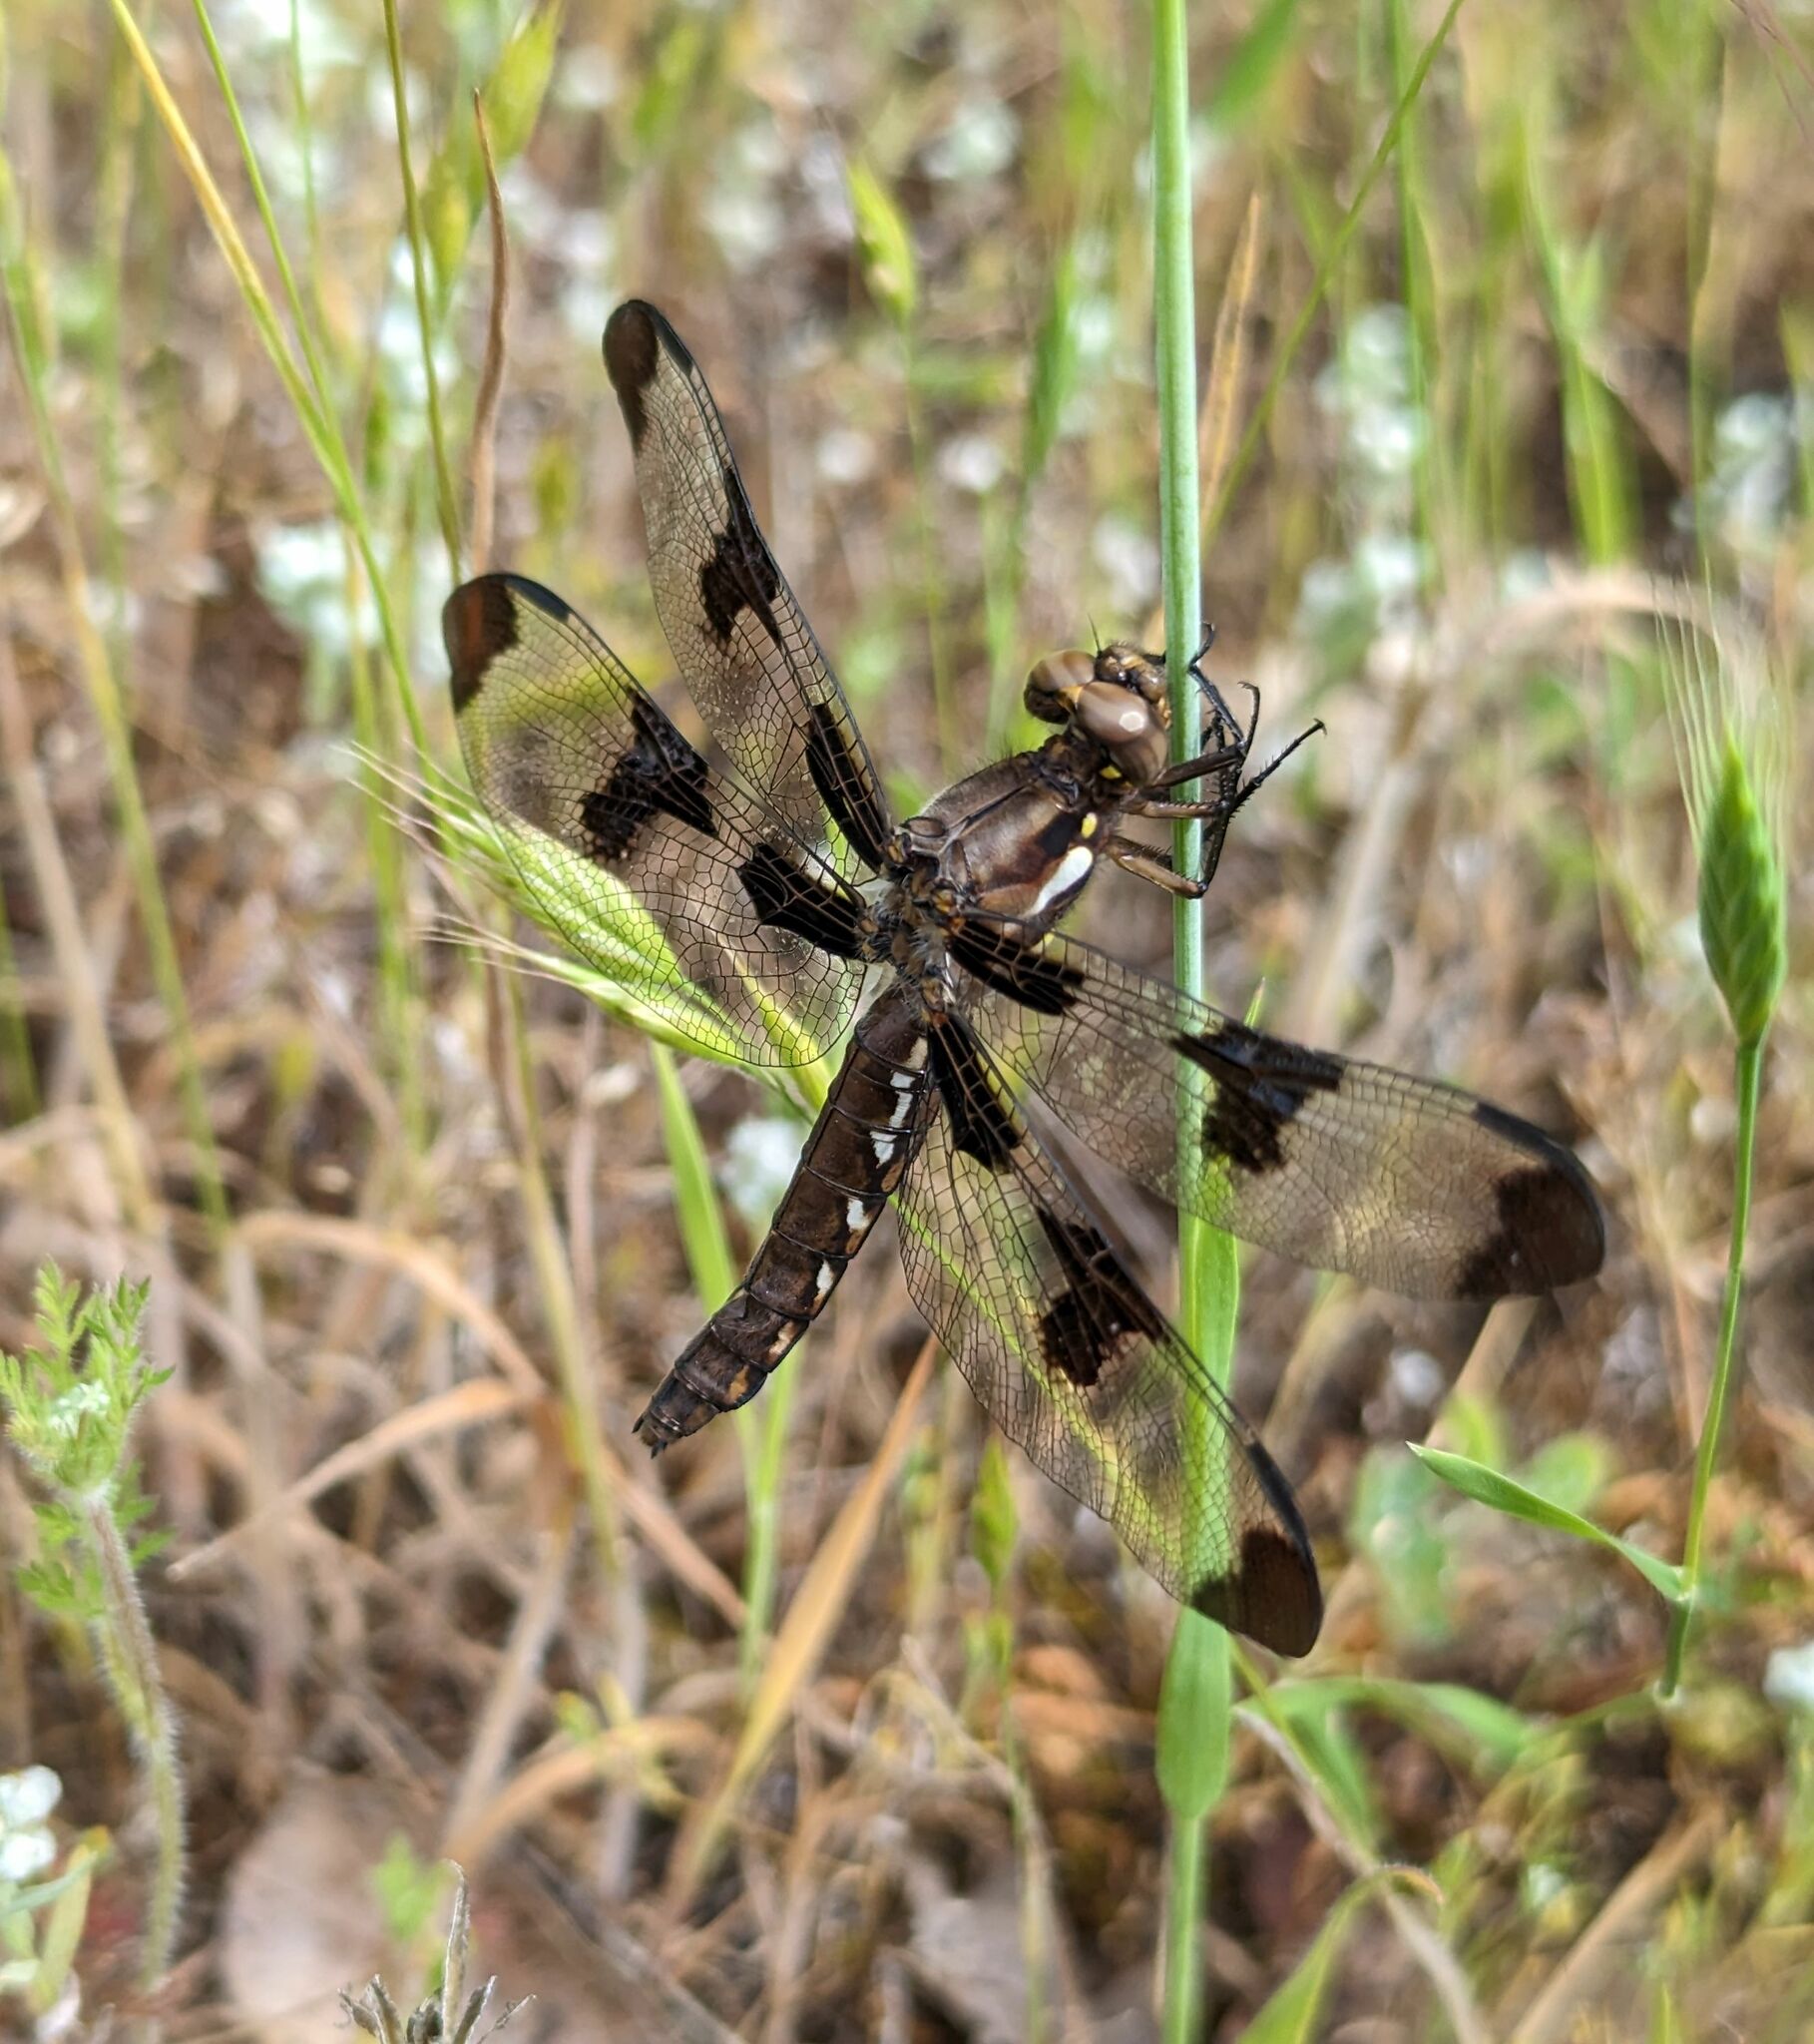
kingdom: Animalia
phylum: Arthropoda
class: Insecta
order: Odonata
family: Libellulidae
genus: Plathemis
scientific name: Plathemis lydia
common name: Common whitetail
